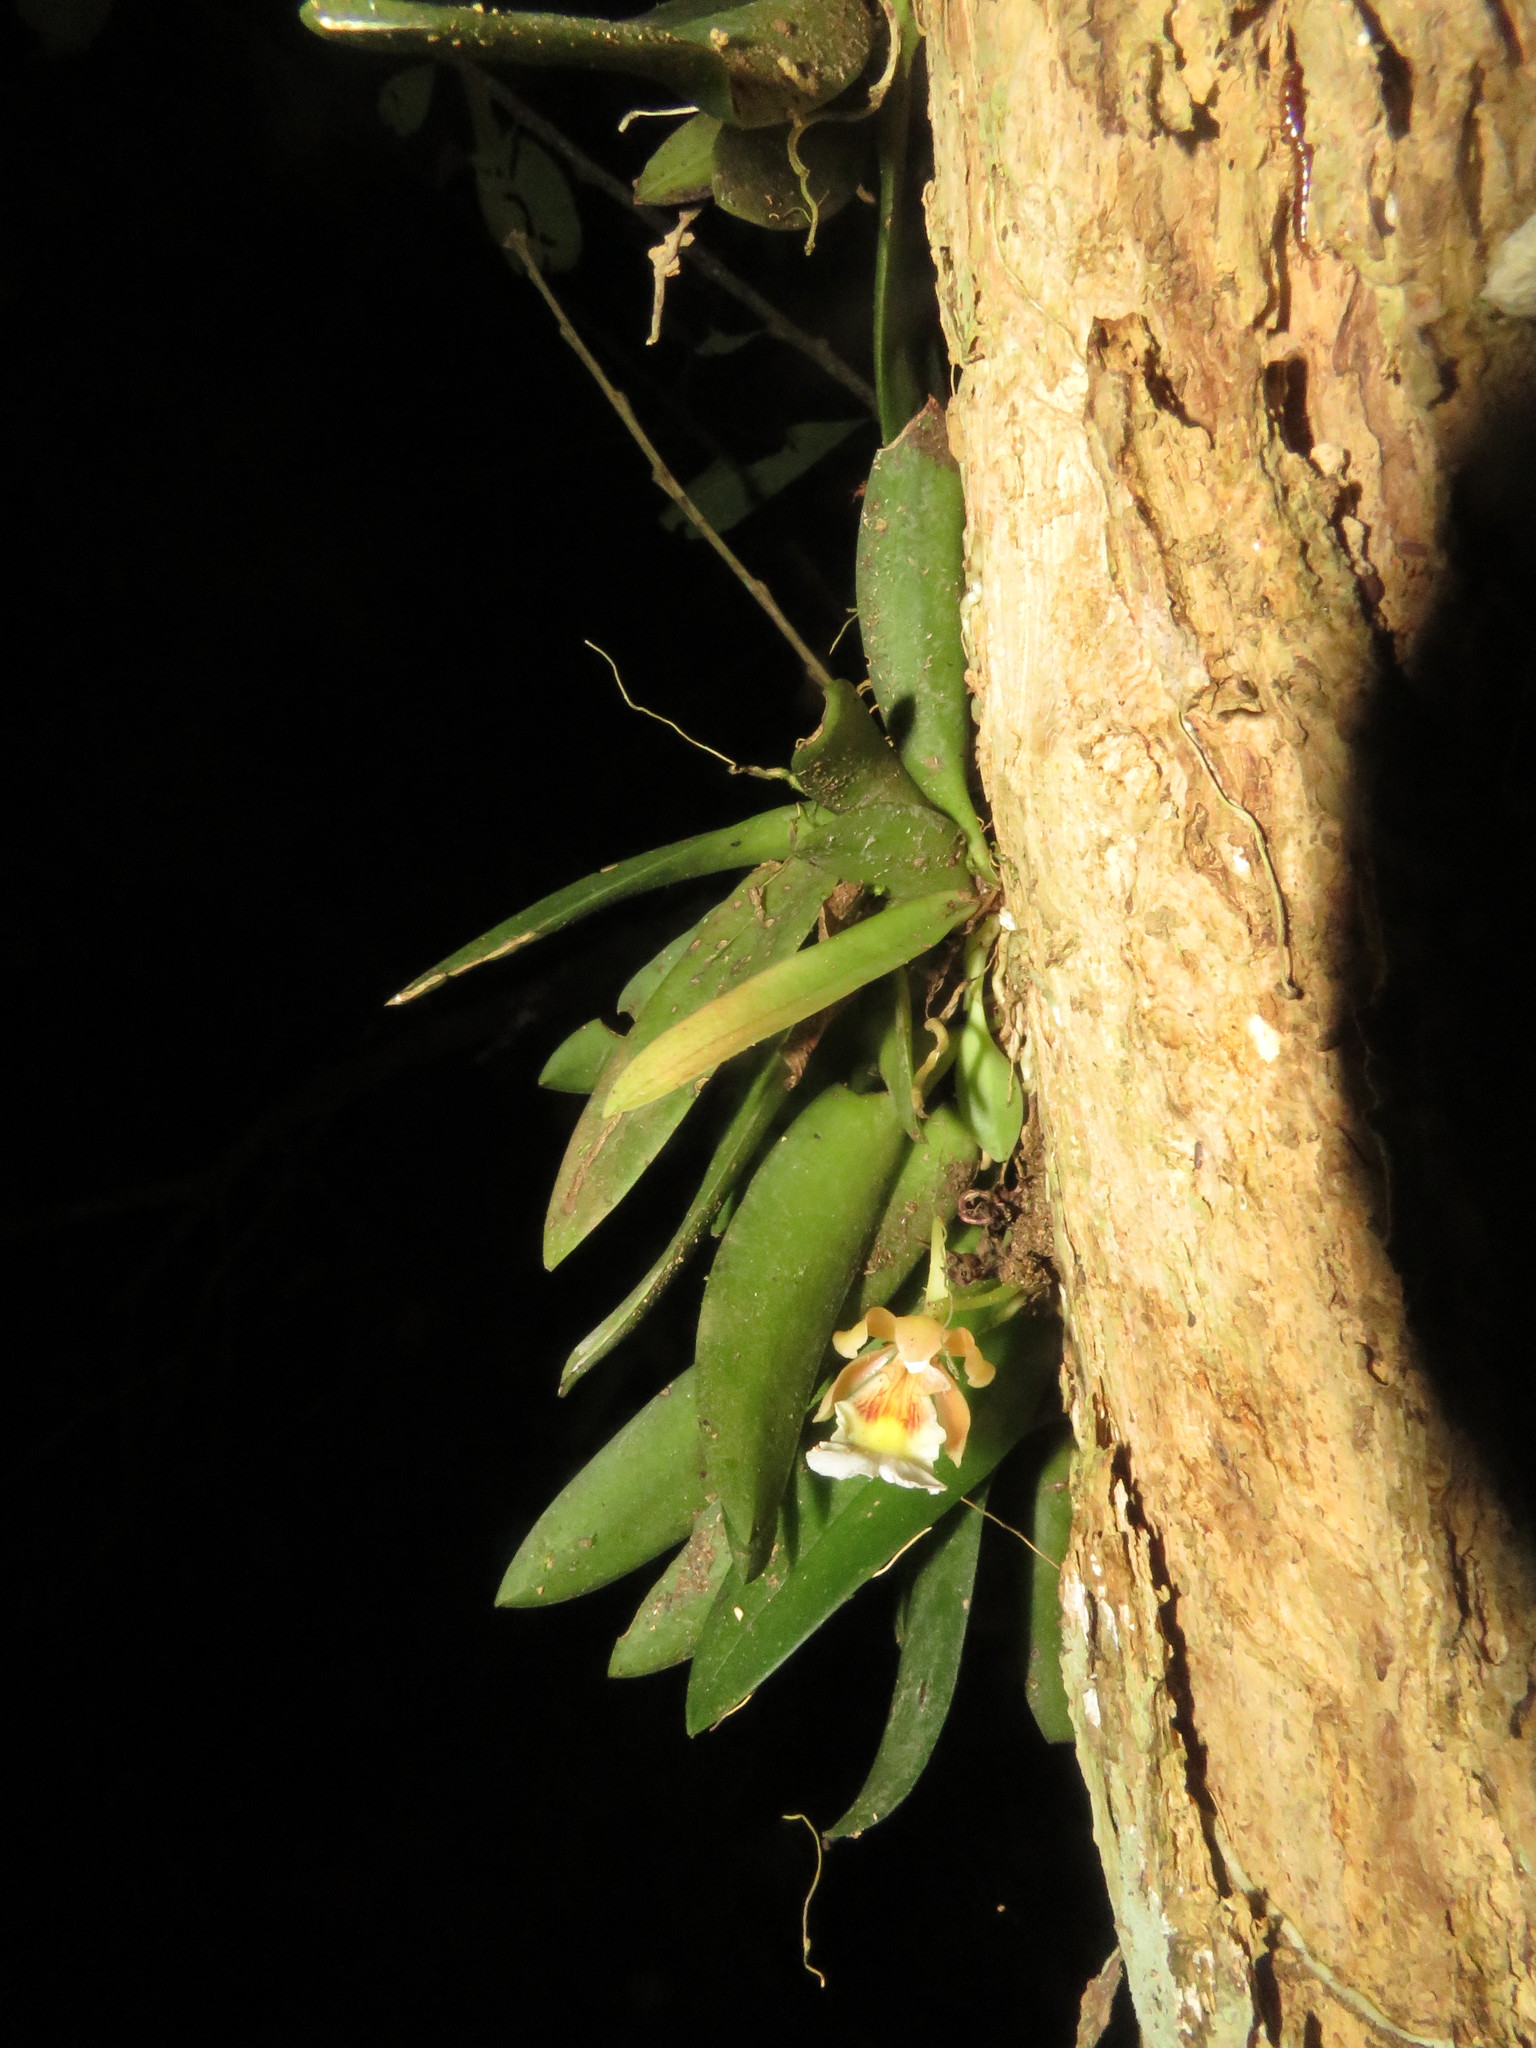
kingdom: Plantae
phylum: Tracheophyta
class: Liliopsida
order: Asparagales
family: Orchidaceae
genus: Trichocentrum
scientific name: Trichocentrum fuscum
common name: Mule-ear orchid
